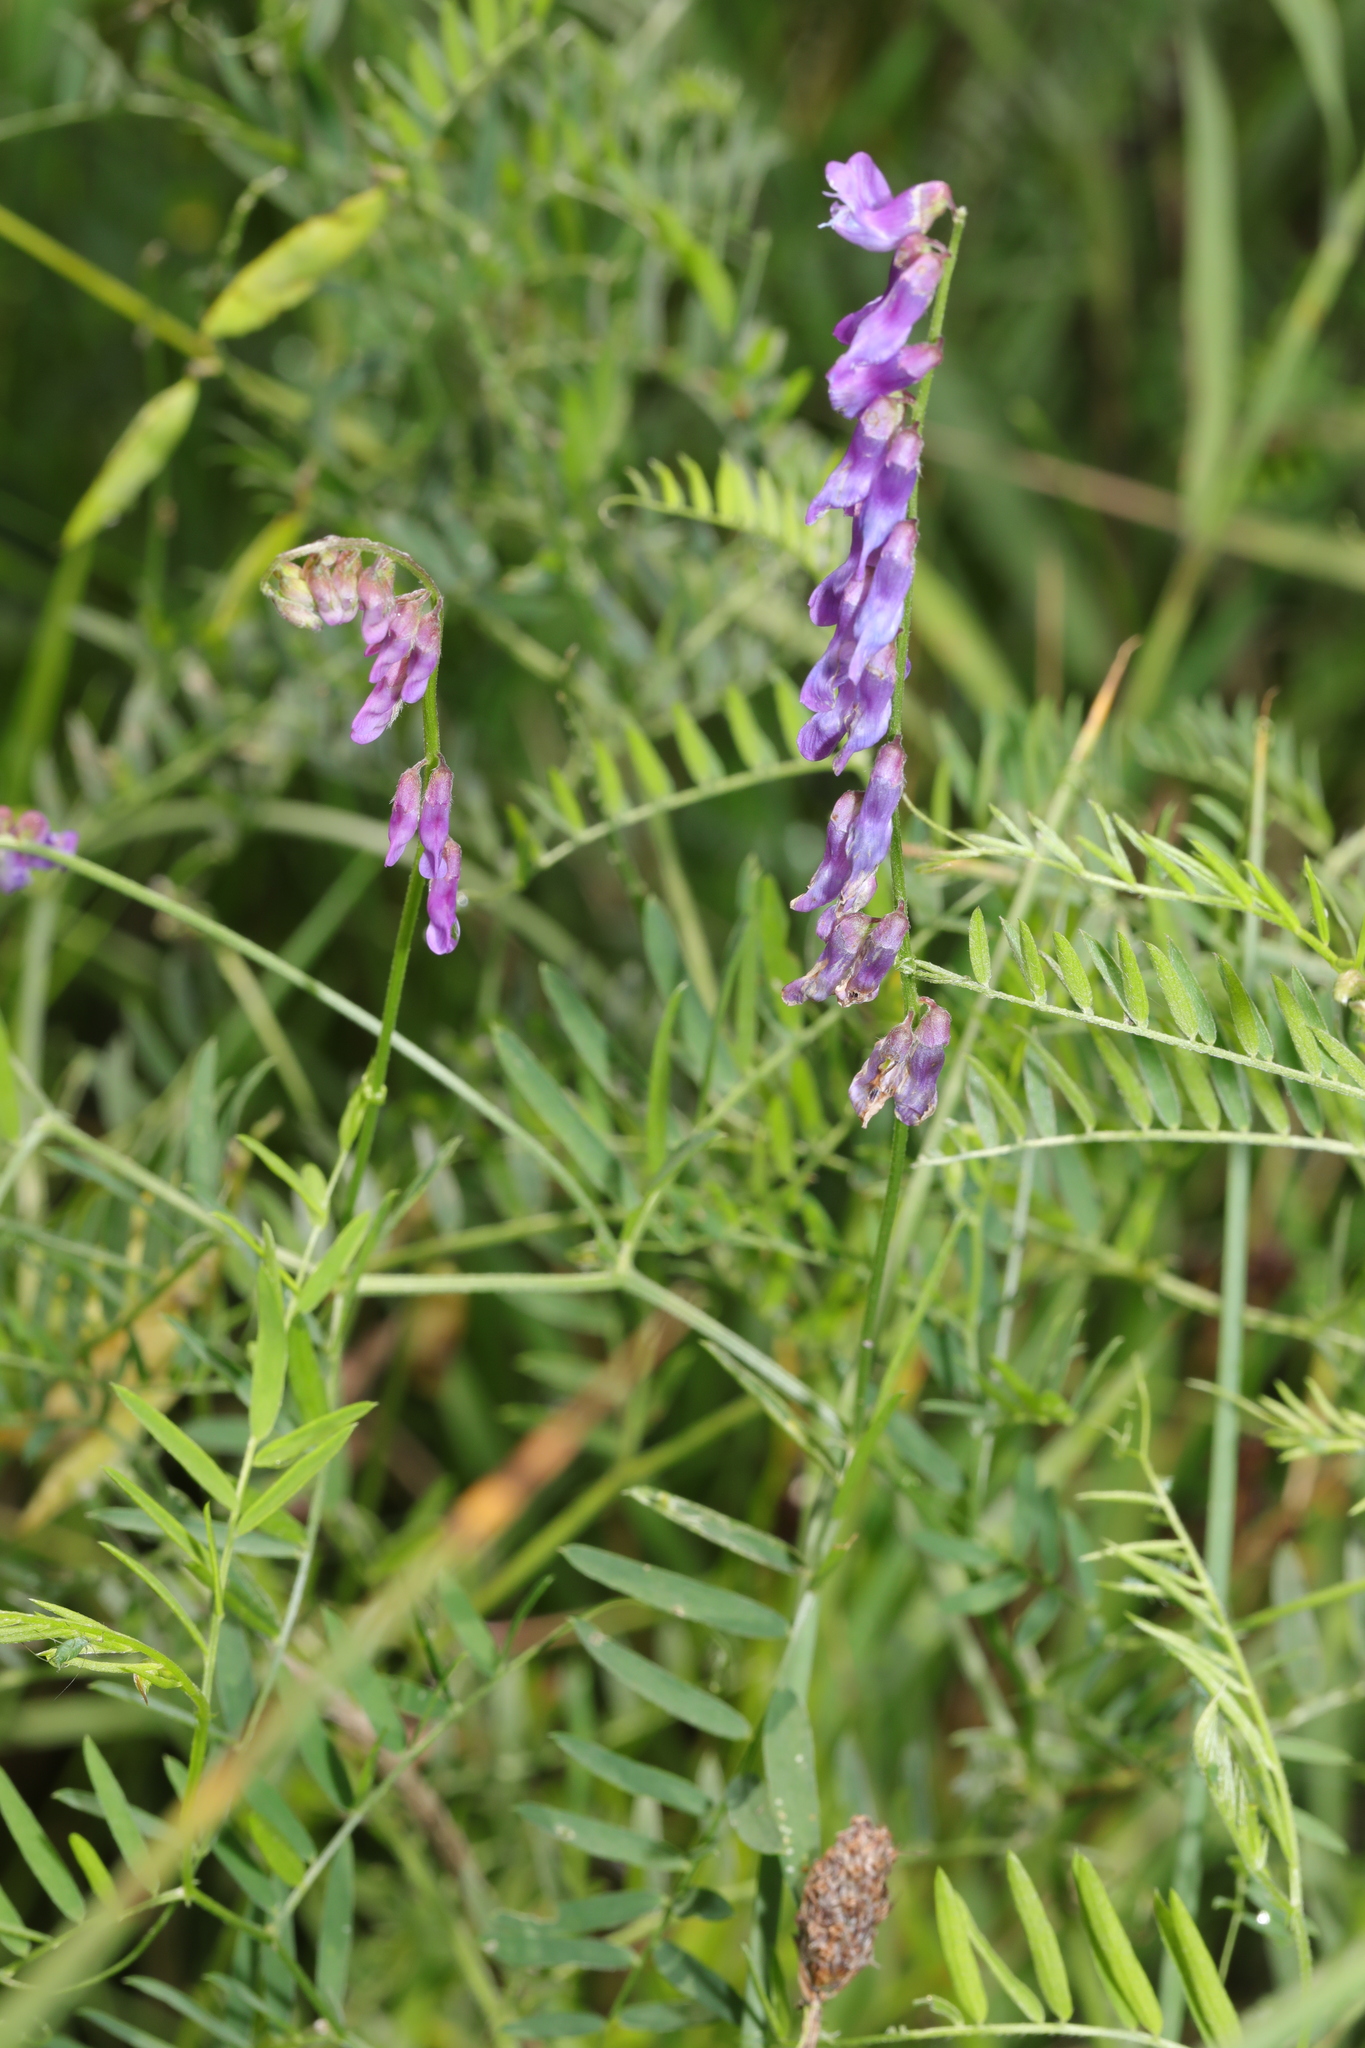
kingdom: Plantae
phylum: Tracheophyta
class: Magnoliopsida
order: Fabales
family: Fabaceae
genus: Vicia
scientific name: Vicia cracca
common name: Bird vetch
